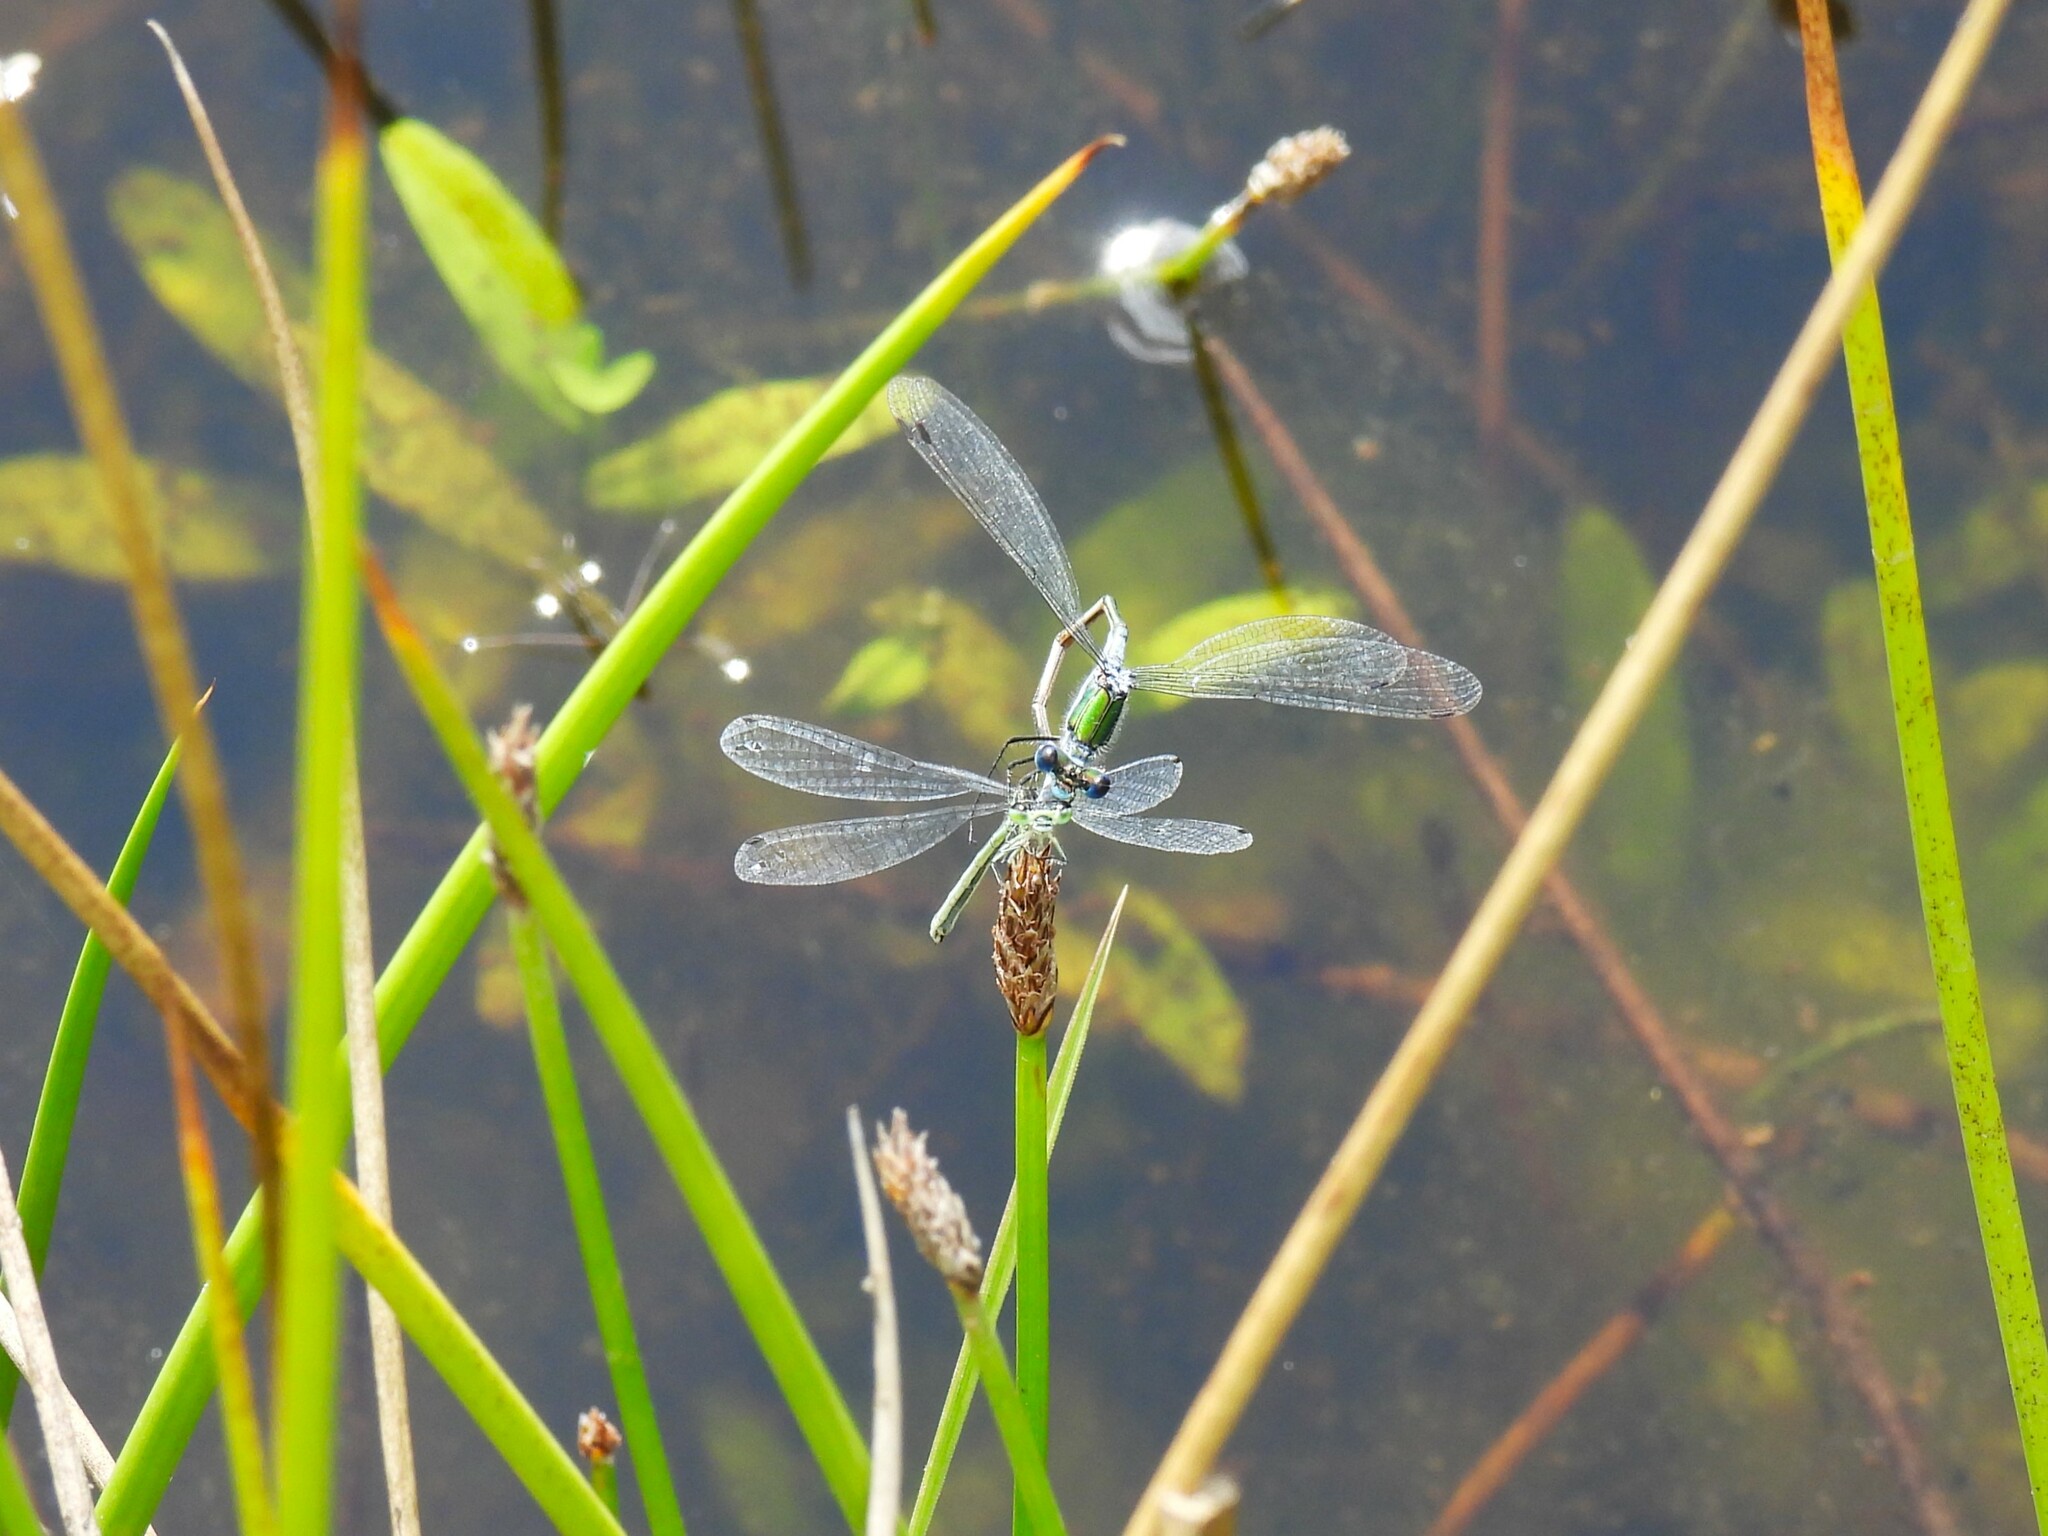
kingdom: Animalia
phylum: Arthropoda
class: Insecta
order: Odonata
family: Lestidae
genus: Lestes
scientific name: Lestes sponsa
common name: Common spreadwing
